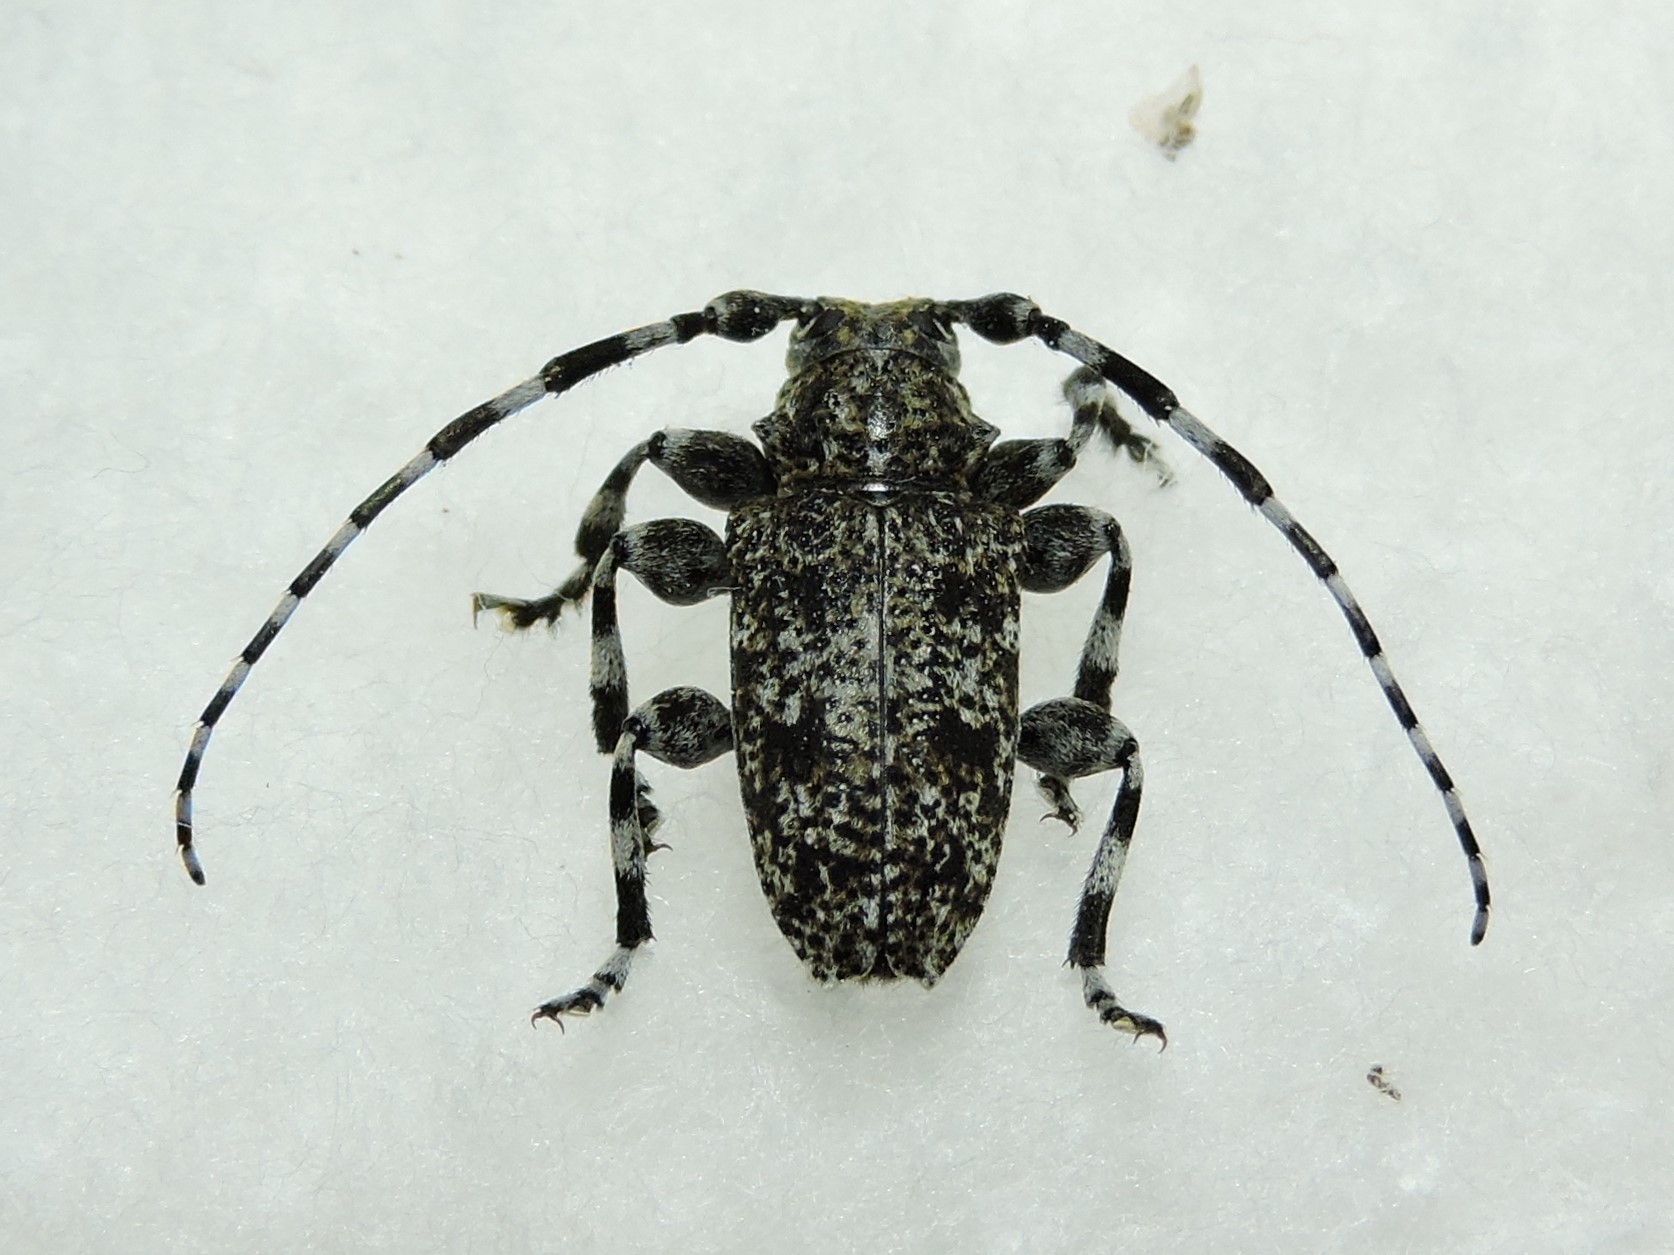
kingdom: Animalia
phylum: Arthropoda
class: Insecta
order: Coleoptera
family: Cerambycidae
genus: Aegomorphus
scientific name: Aegomorphus clavipes
